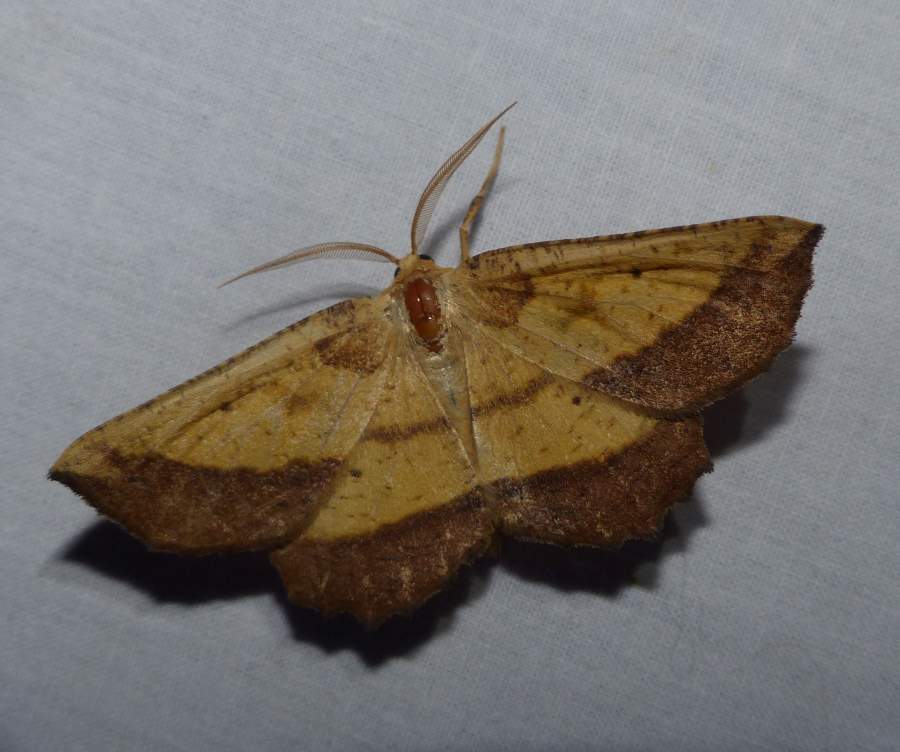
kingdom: Animalia
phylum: Arthropoda
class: Insecta
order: Lepidoptera
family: Geometridae
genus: Euchlaena
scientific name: Euchlaena serrata
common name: Saw wing
